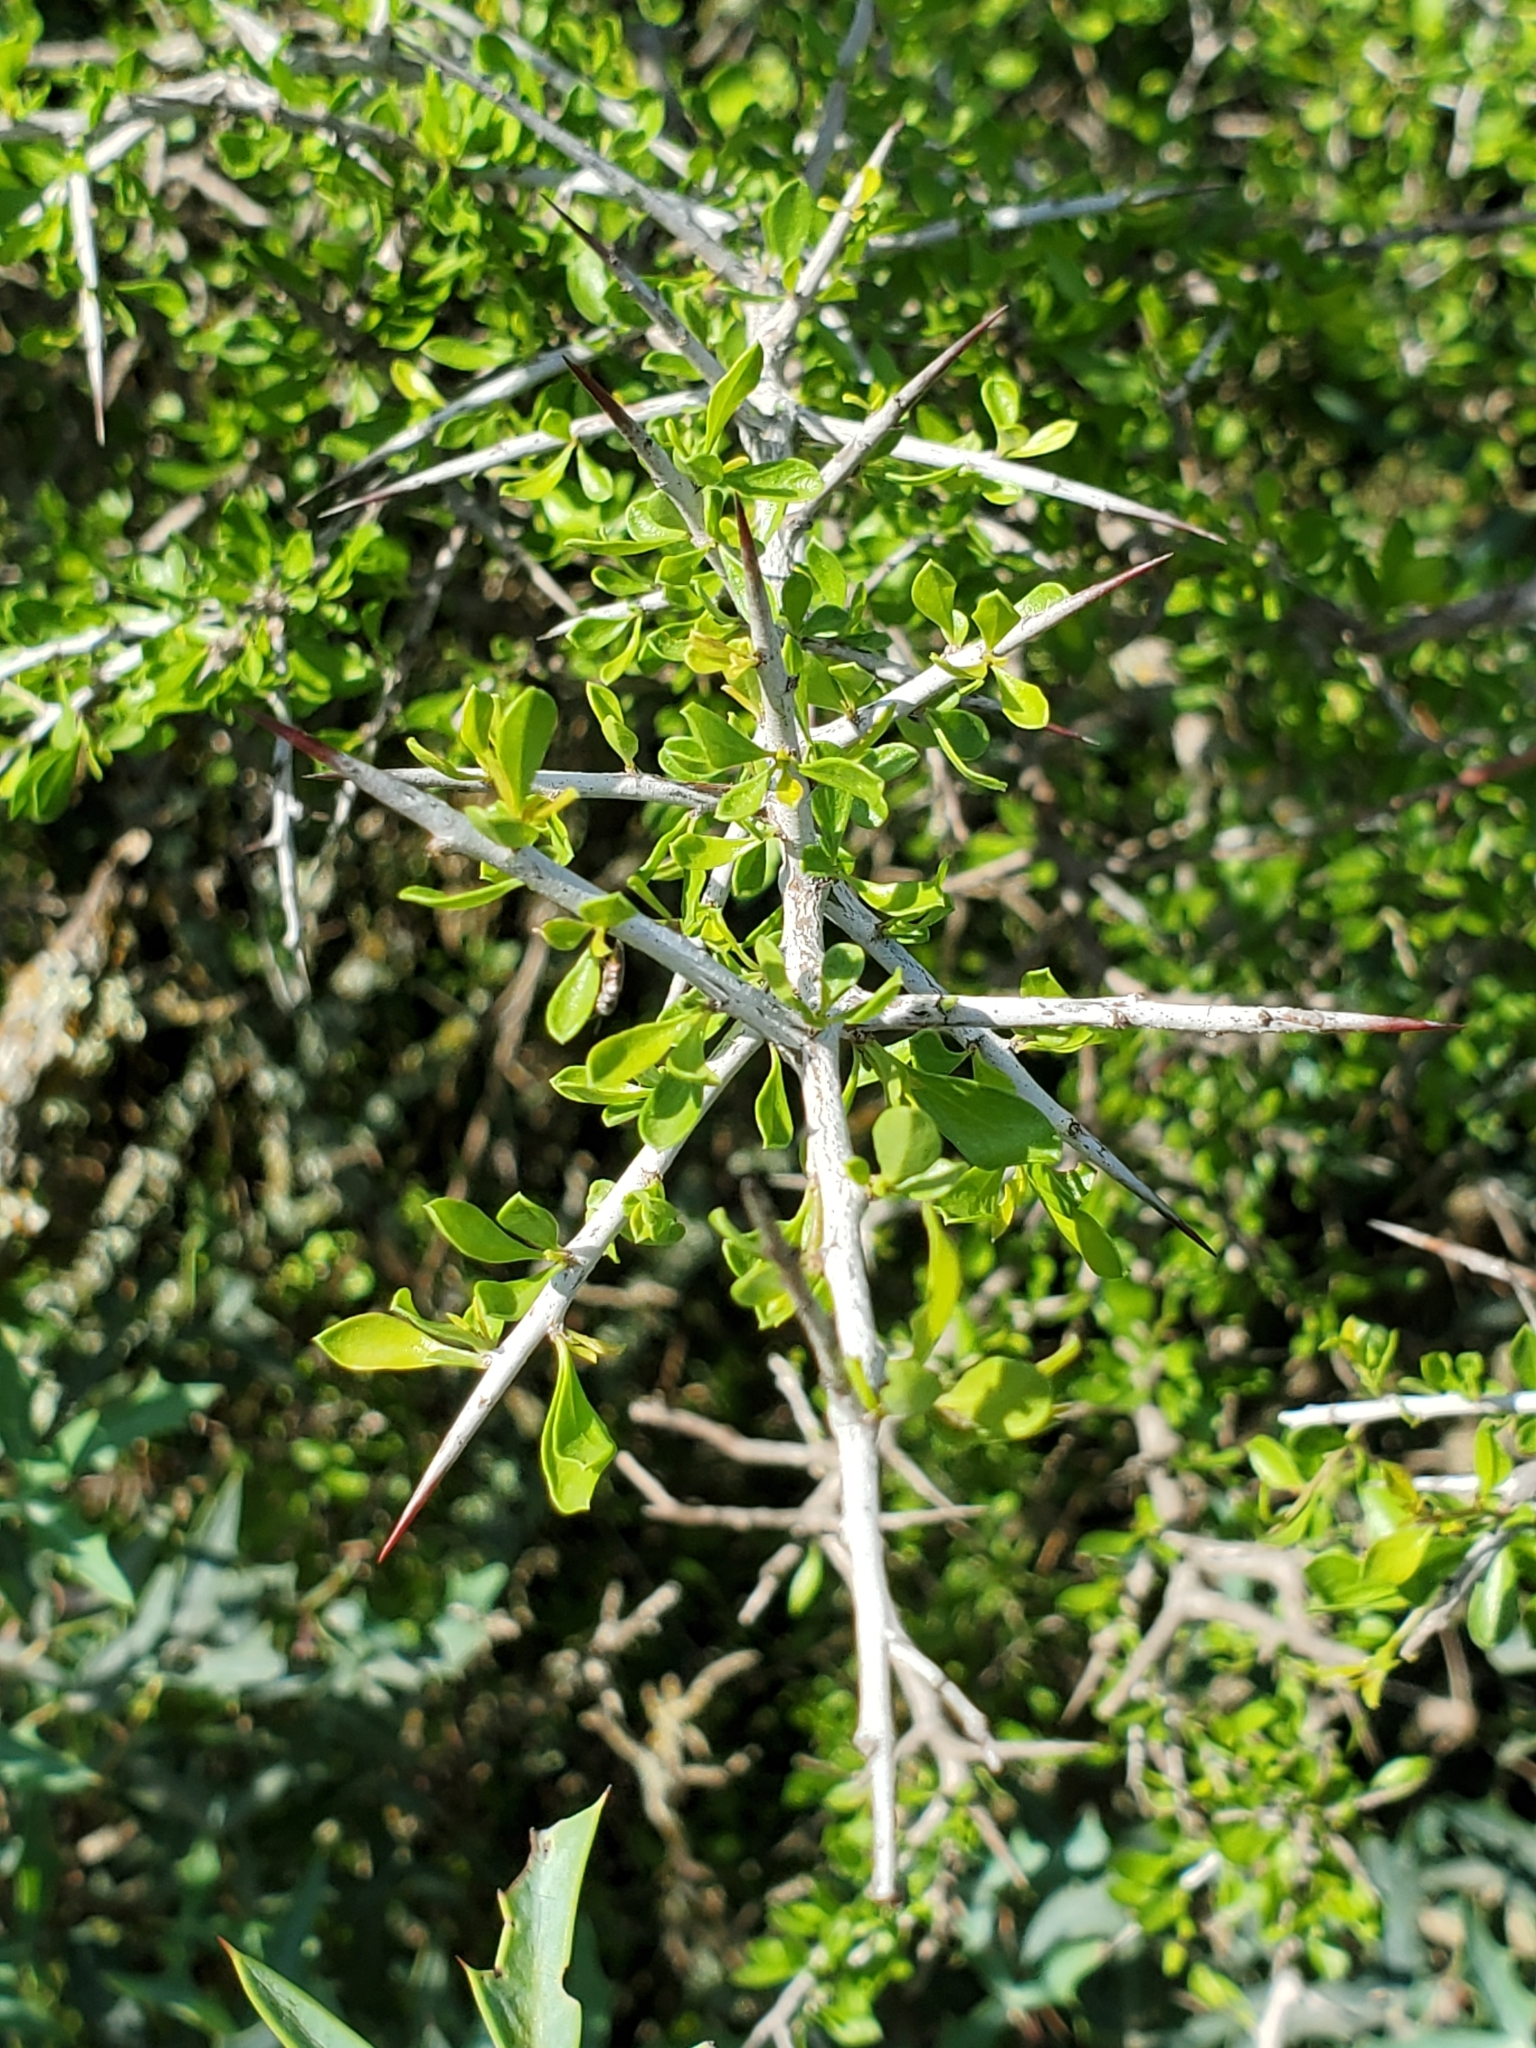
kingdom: Plantae
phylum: Tracheophyta
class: Magnoliopsida
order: Rosales
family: Rhamnaceae
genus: Condalia
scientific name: Condalia viridis
